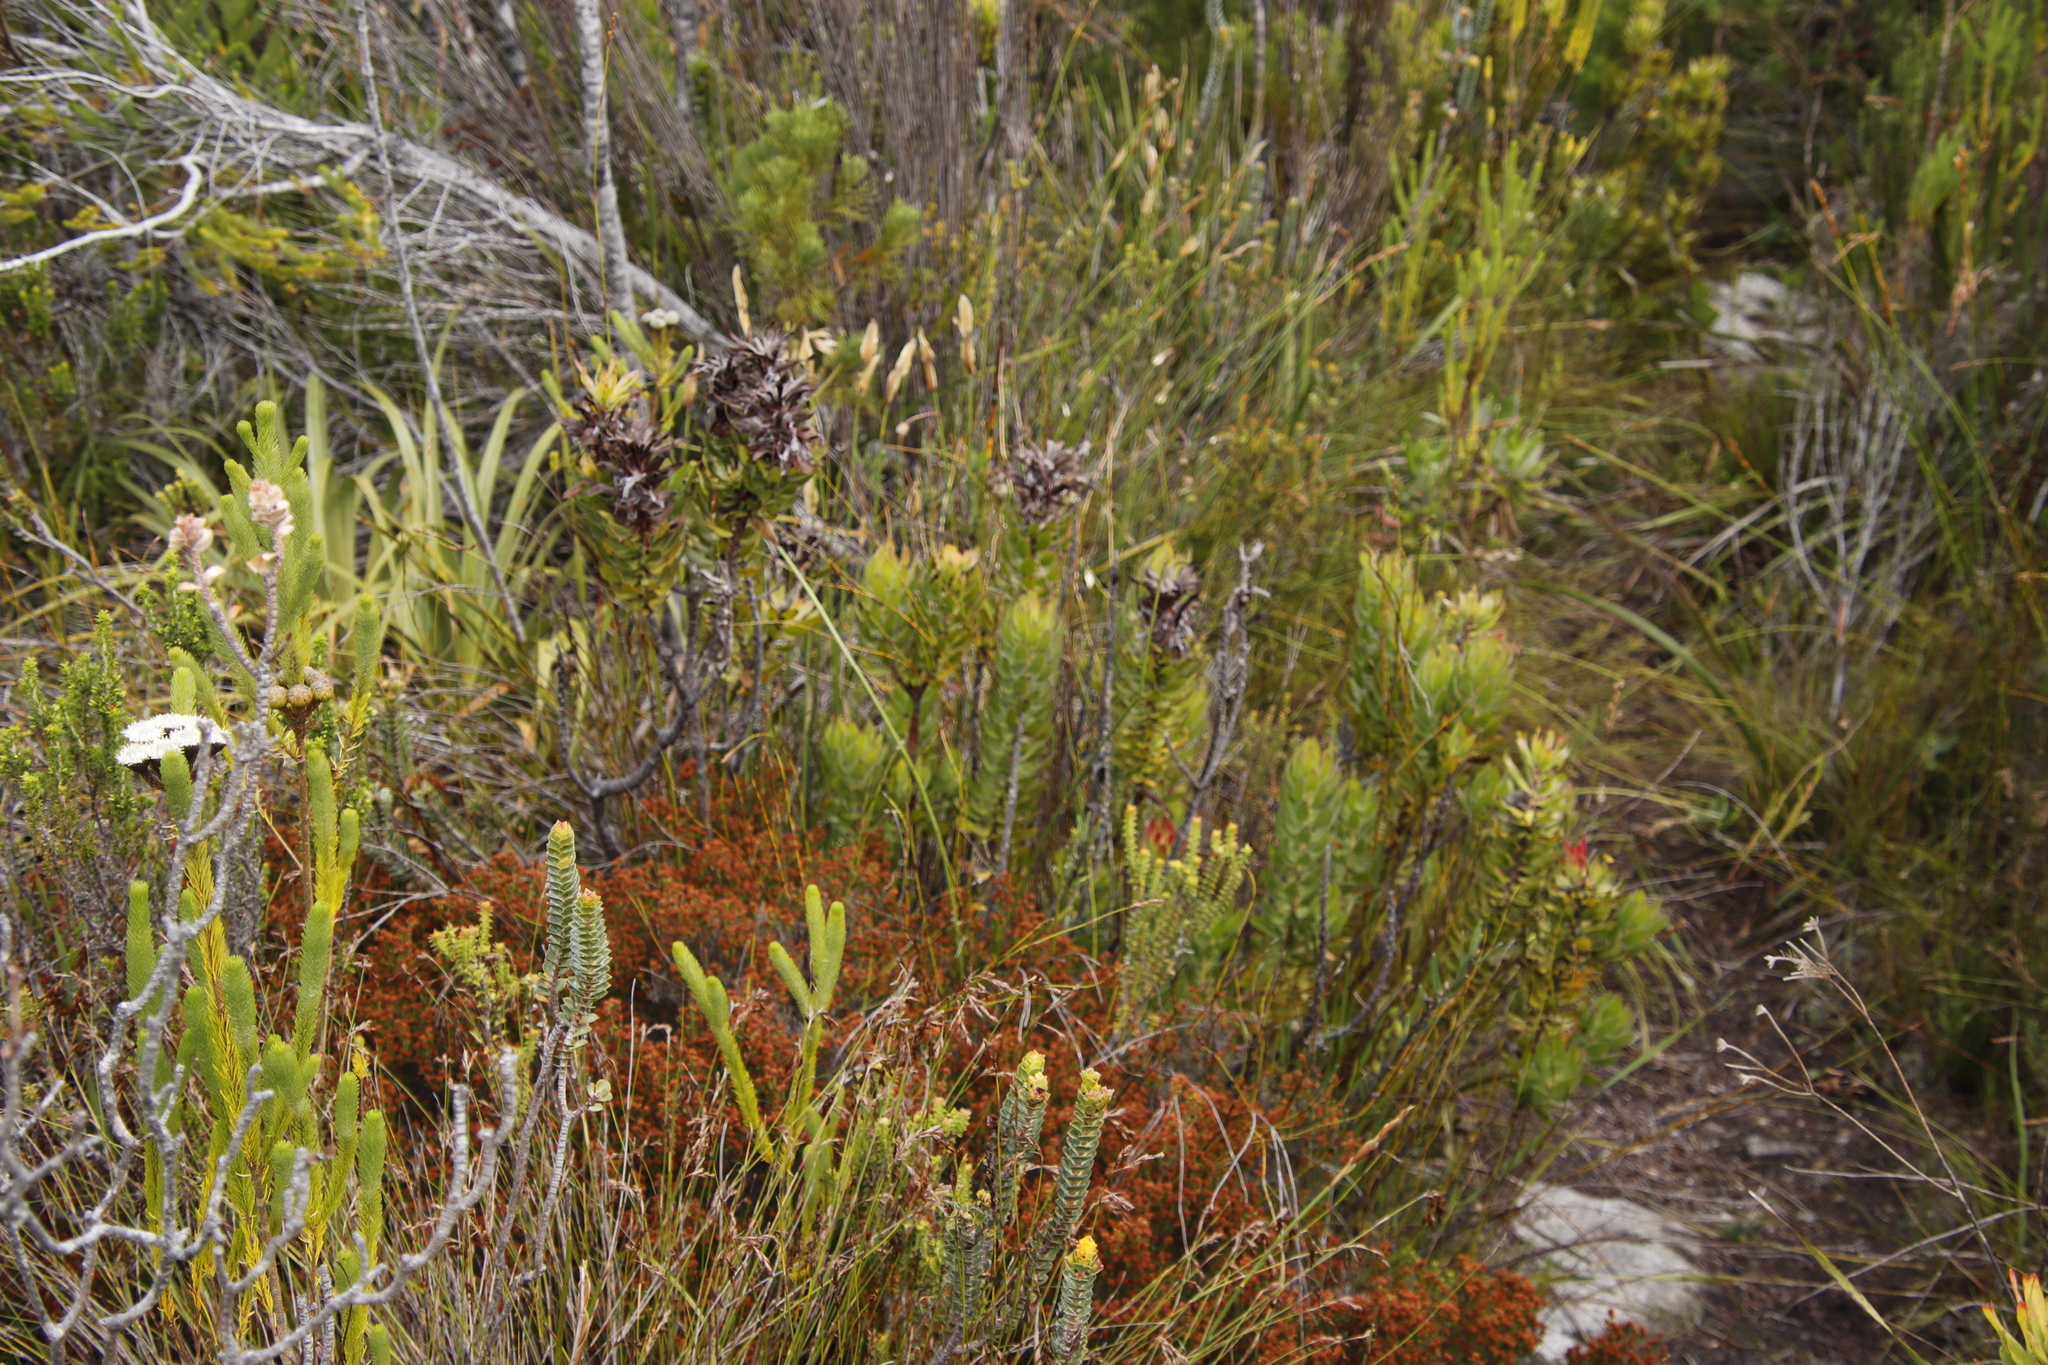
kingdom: Plantae
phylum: Tracheophyta
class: Magnoliopsida
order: Proteales
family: Proteaceae
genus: Mimetes
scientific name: Mimetes cucullatus
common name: Common pagoda
